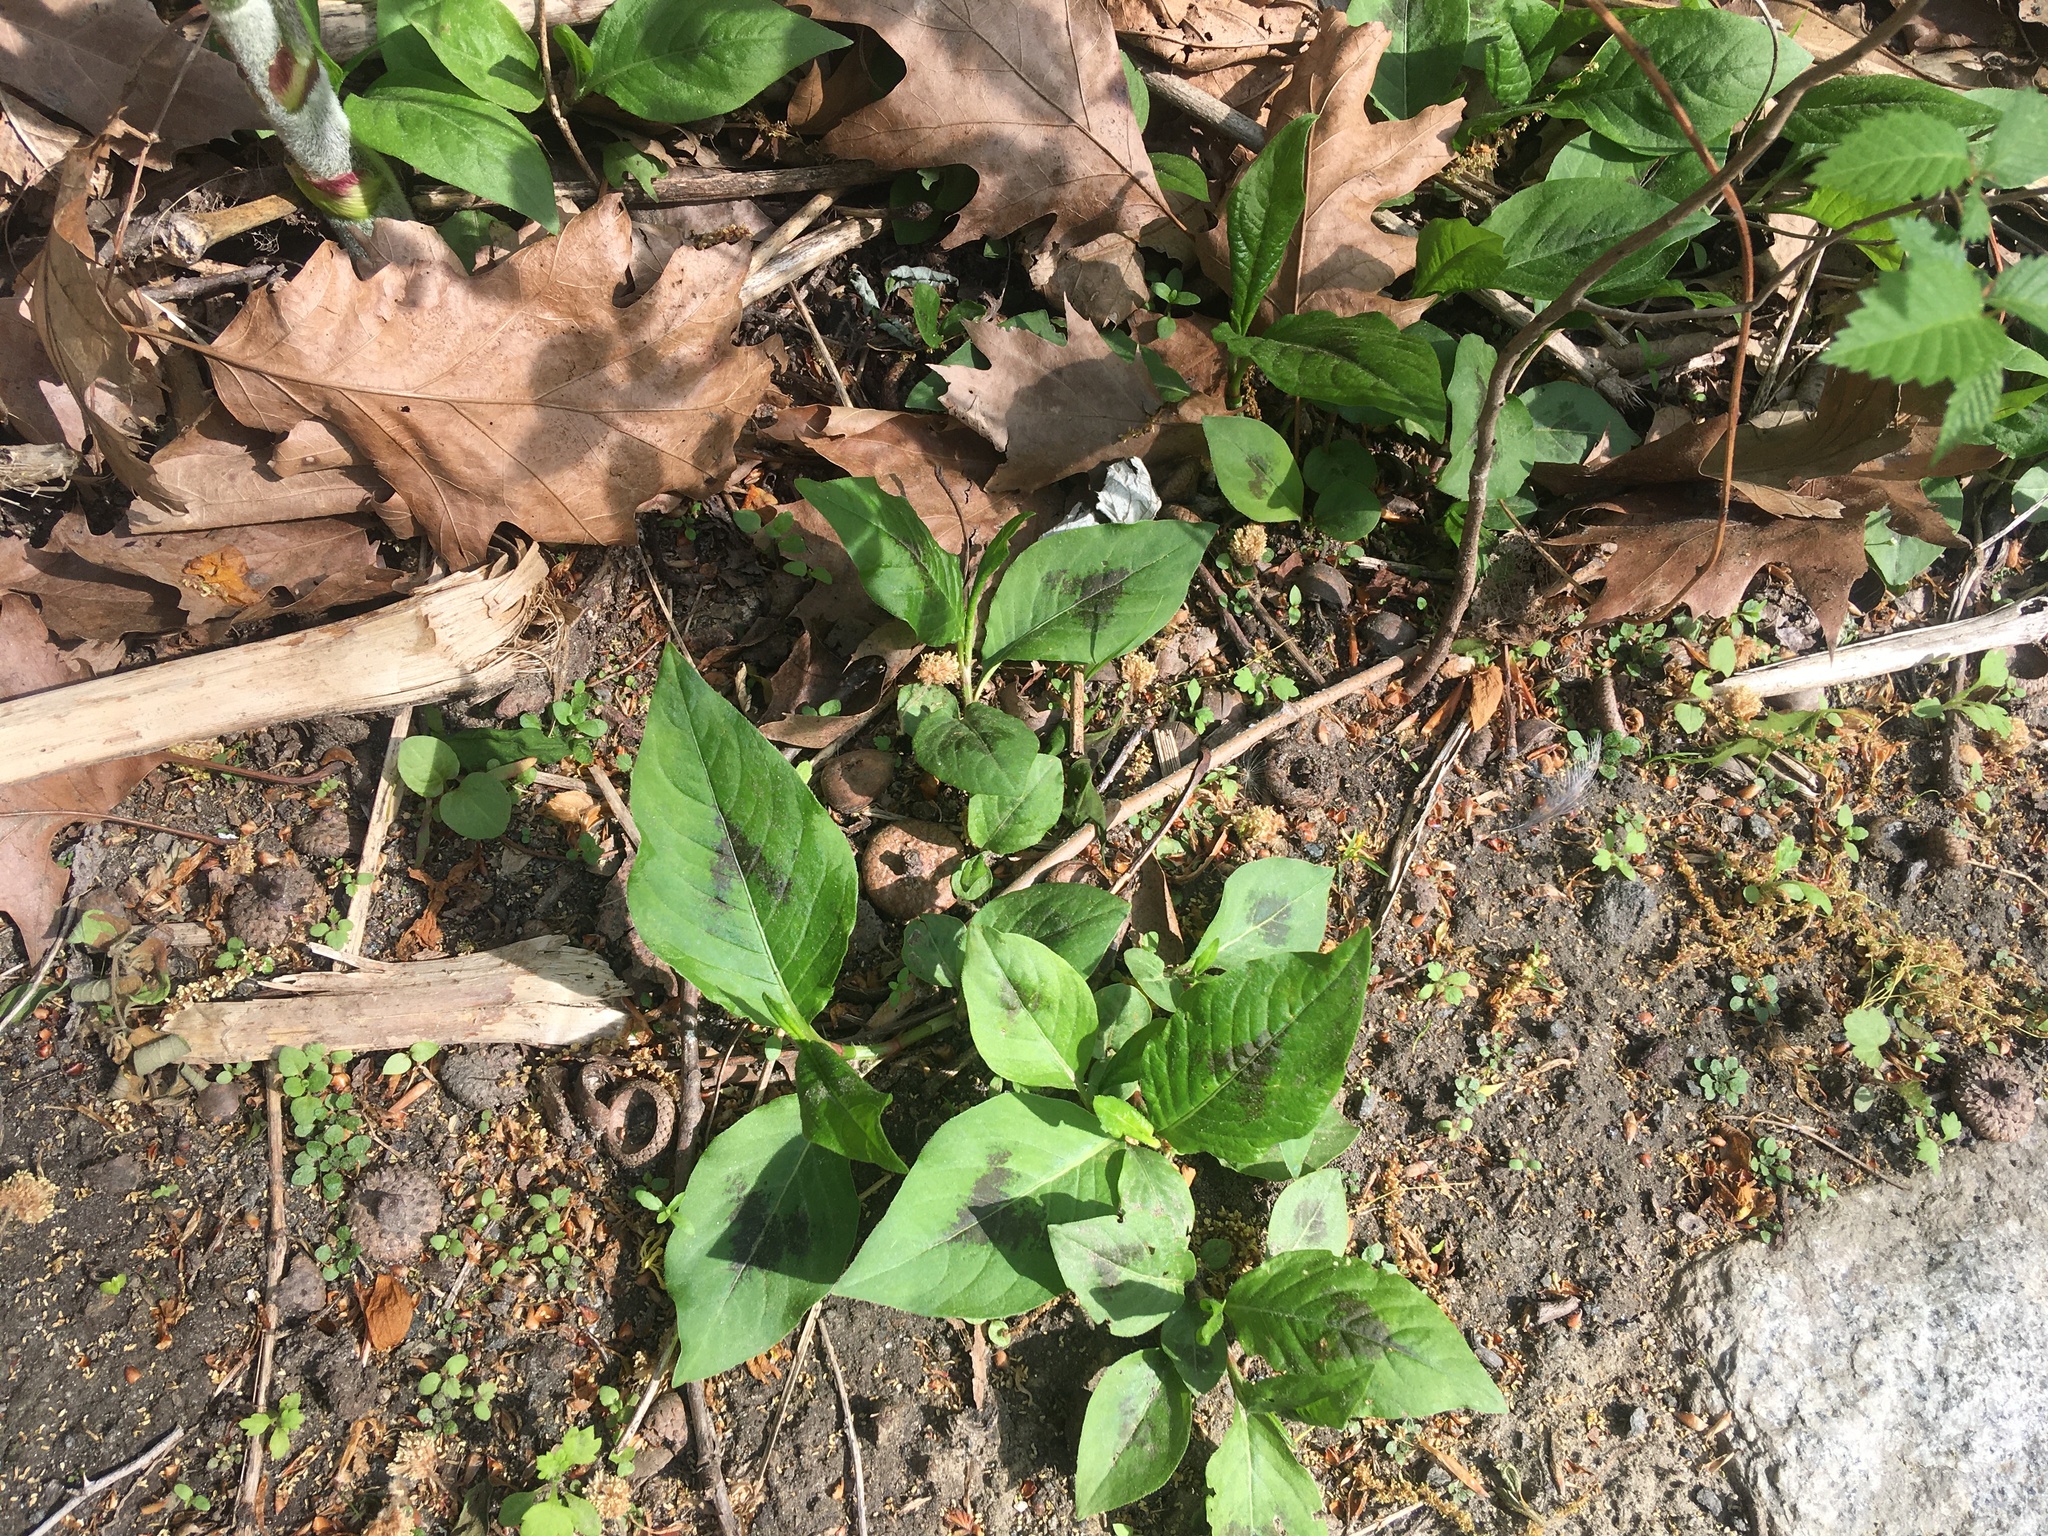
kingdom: Plantae
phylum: Tracheophyta
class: Magnoliopsida
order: Caryophyllales
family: Polygonaceae
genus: Persicaria
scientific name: Persicaria virginiana
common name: Jumpseed
